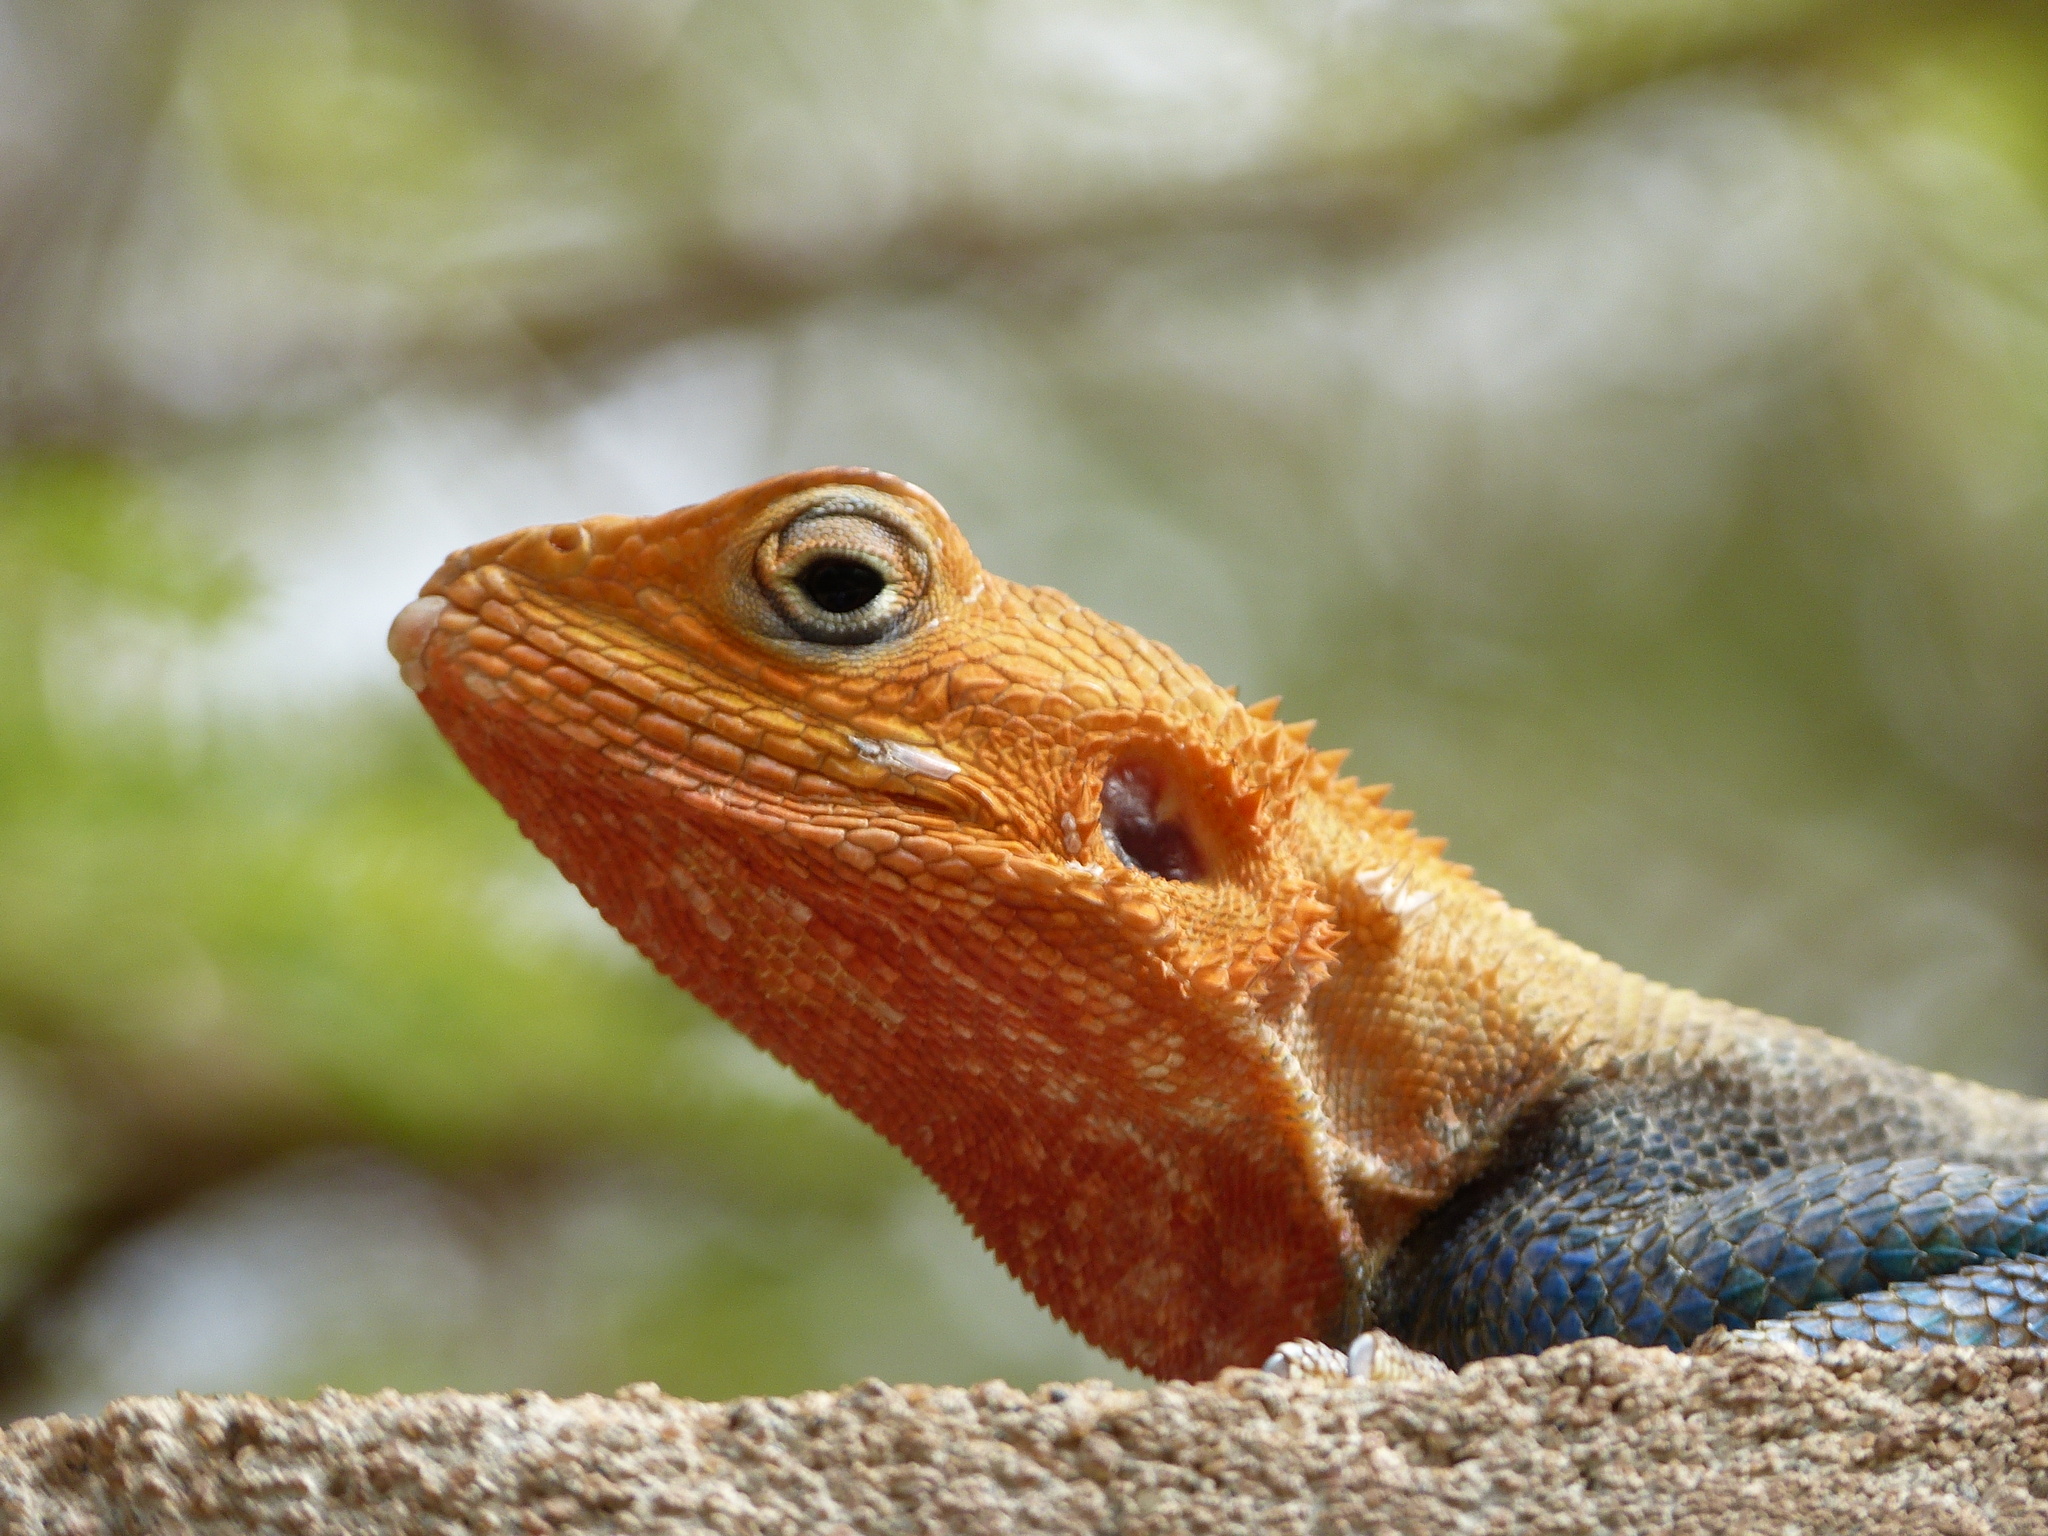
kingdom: Animalia
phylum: Chordata
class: Squamata
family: Agamidae
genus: Agama
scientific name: Agama lionotus
